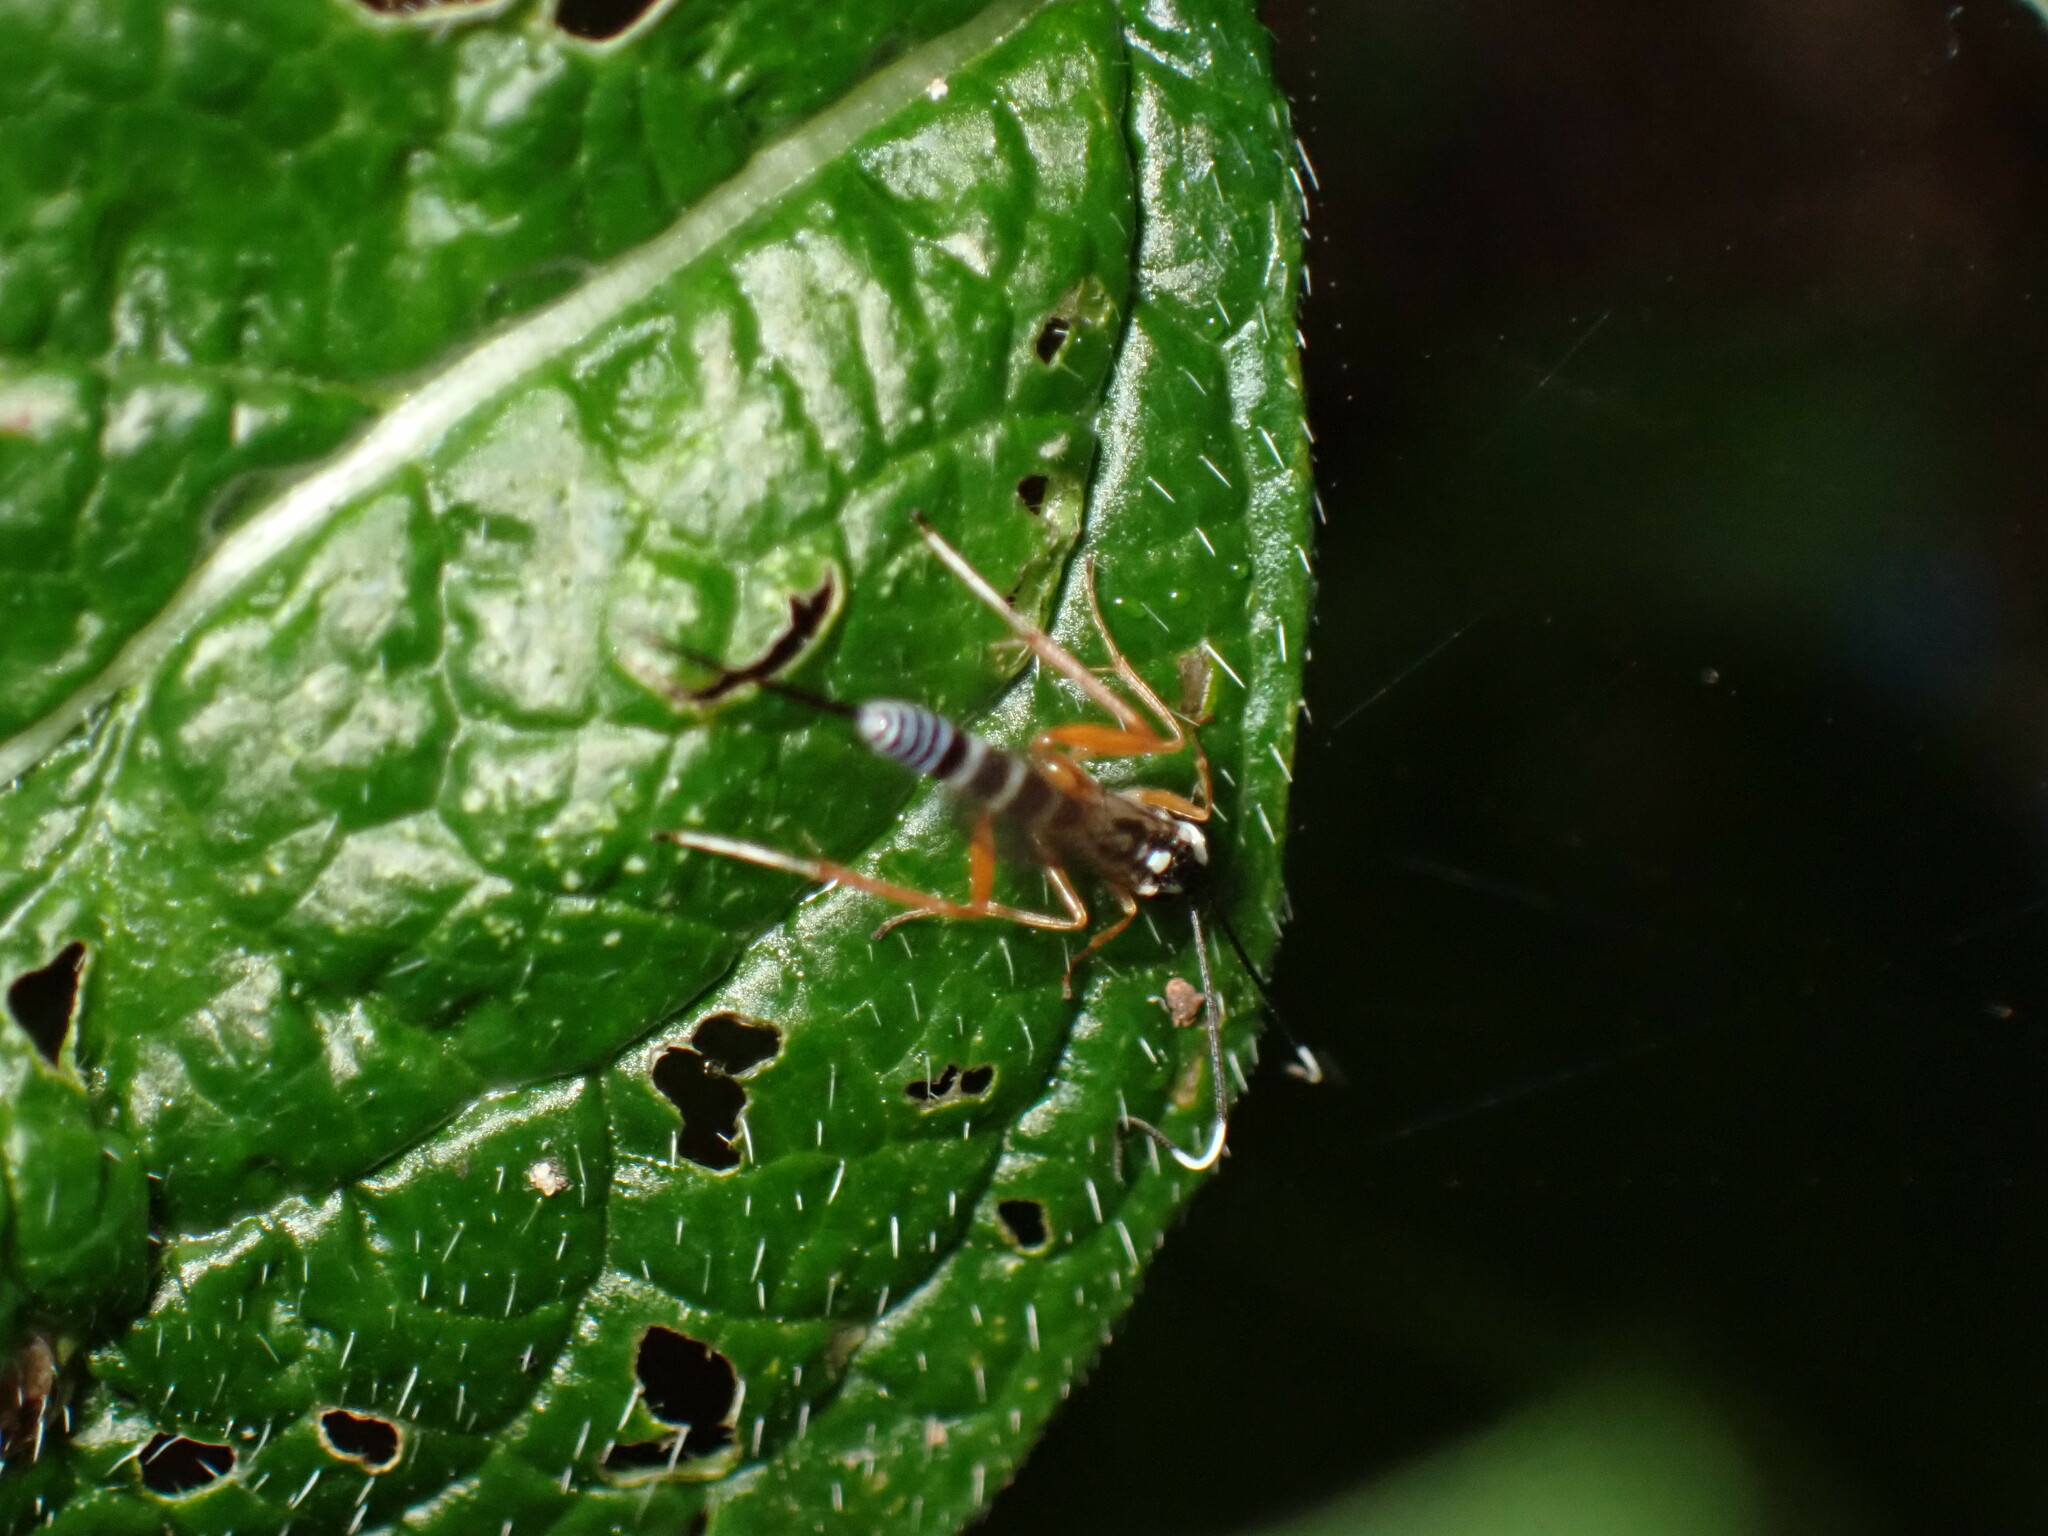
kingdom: Animalia
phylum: Arthropoda
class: Insecta
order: Hymenoptera
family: Ichneumonidae
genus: Sphelodon
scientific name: Sphelodon phoxopteridis
